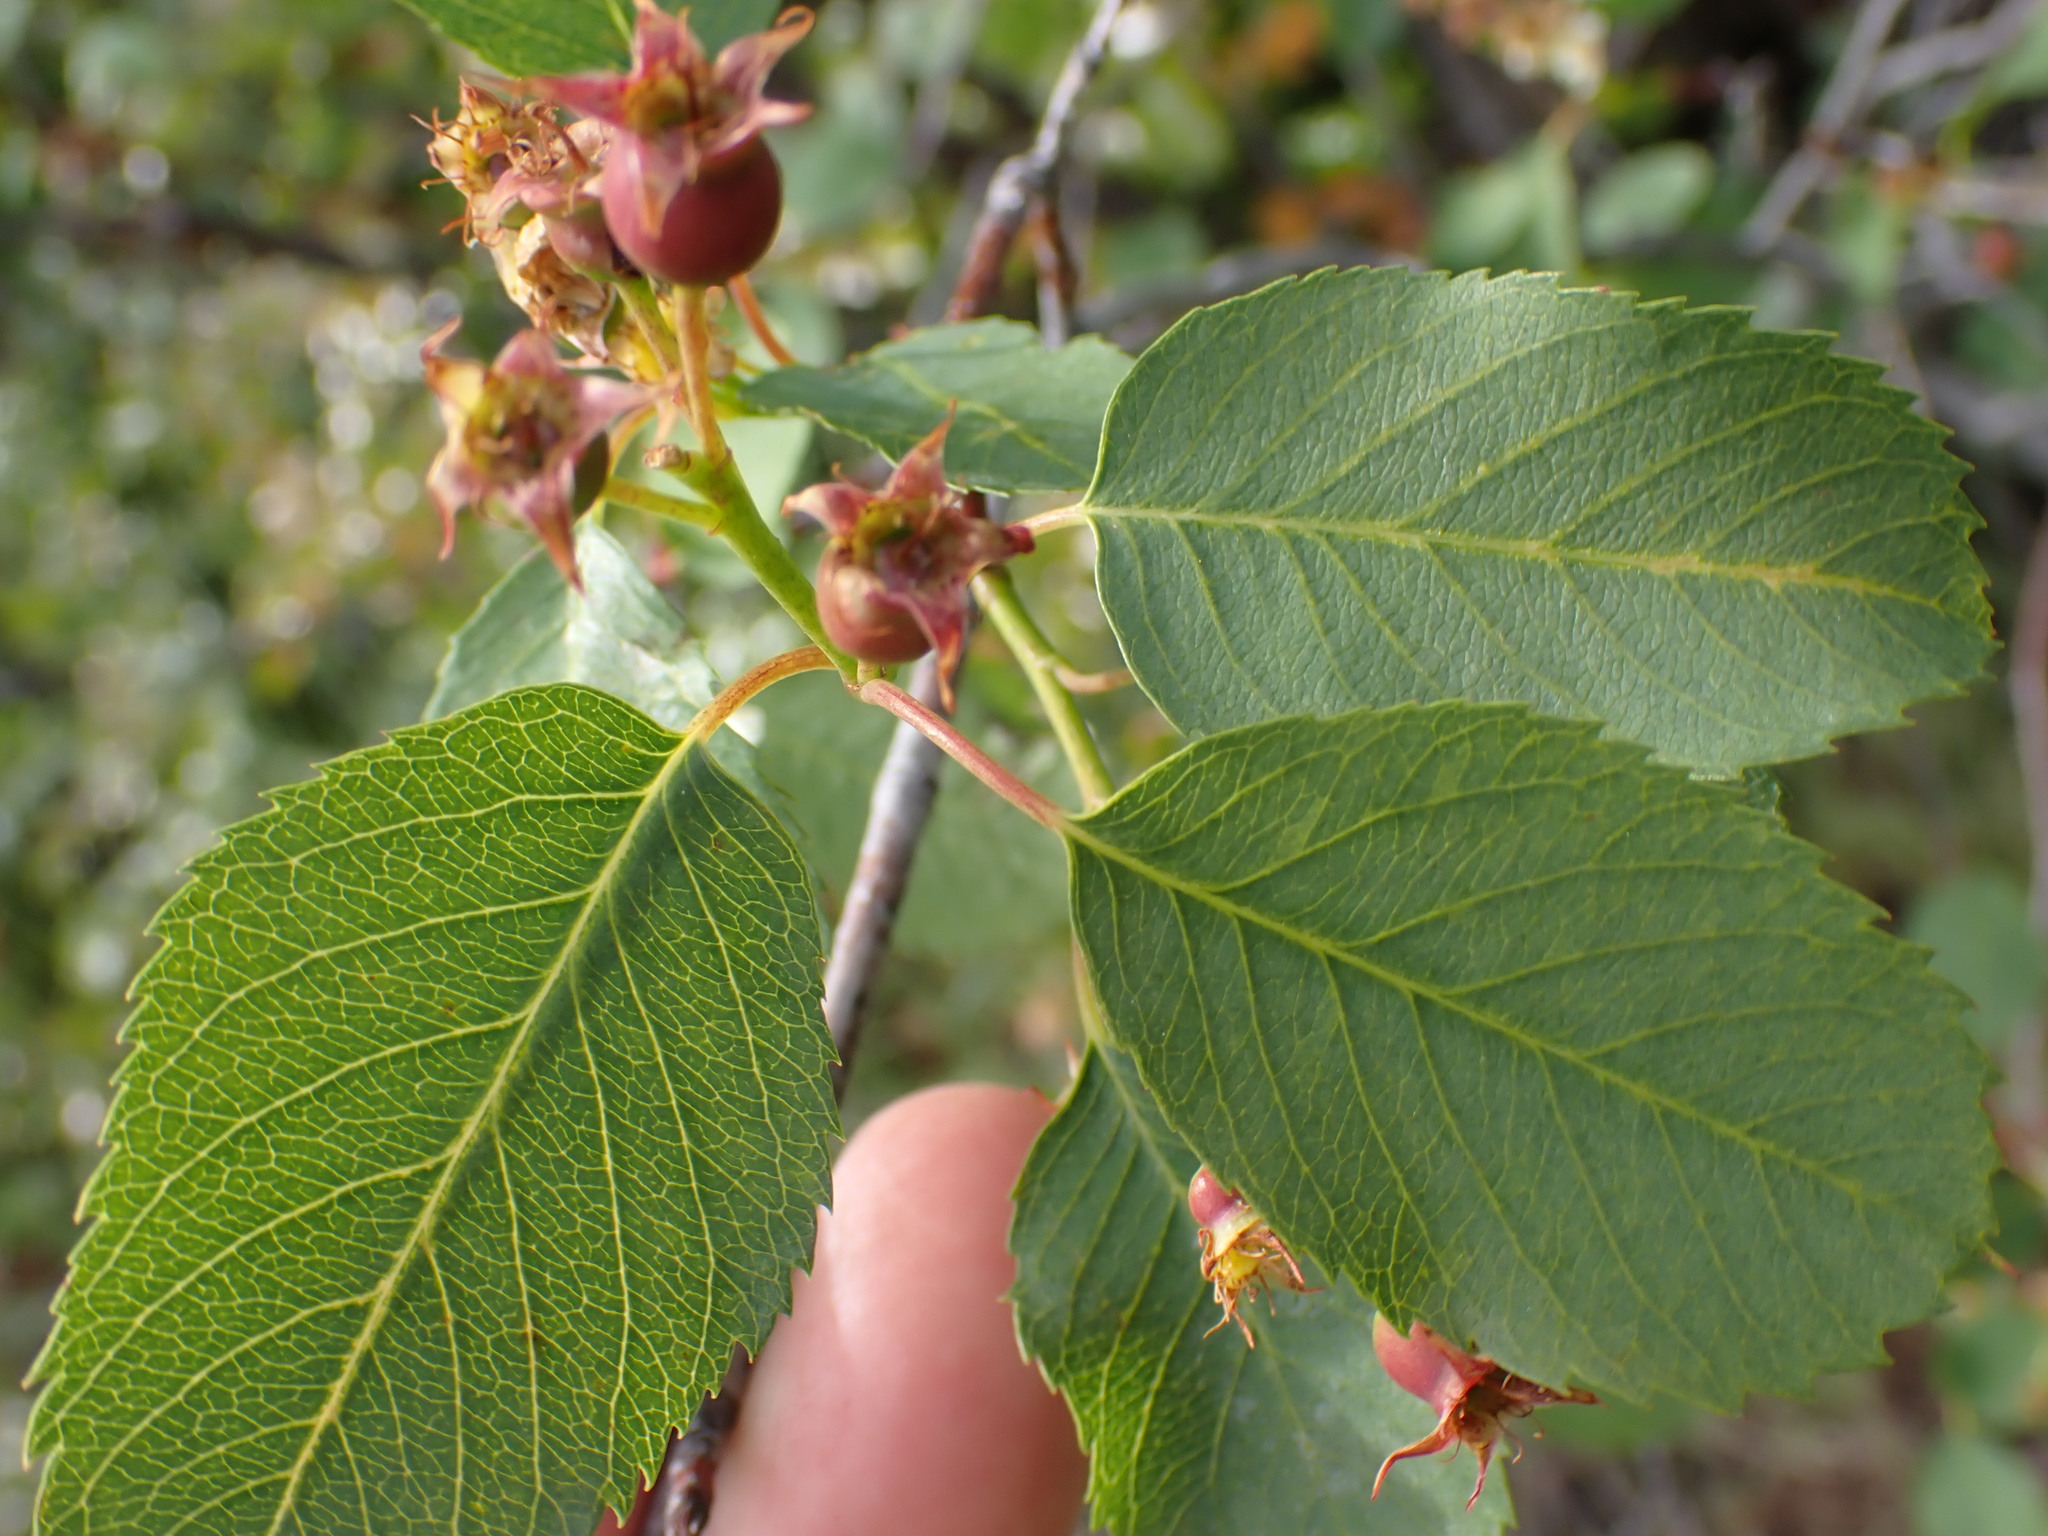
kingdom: Plantae
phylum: Tracheophyta
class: Magnoliopsida
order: Rosales
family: Rosaceae
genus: Amelanchier
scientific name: Amelanchier alnifolia
